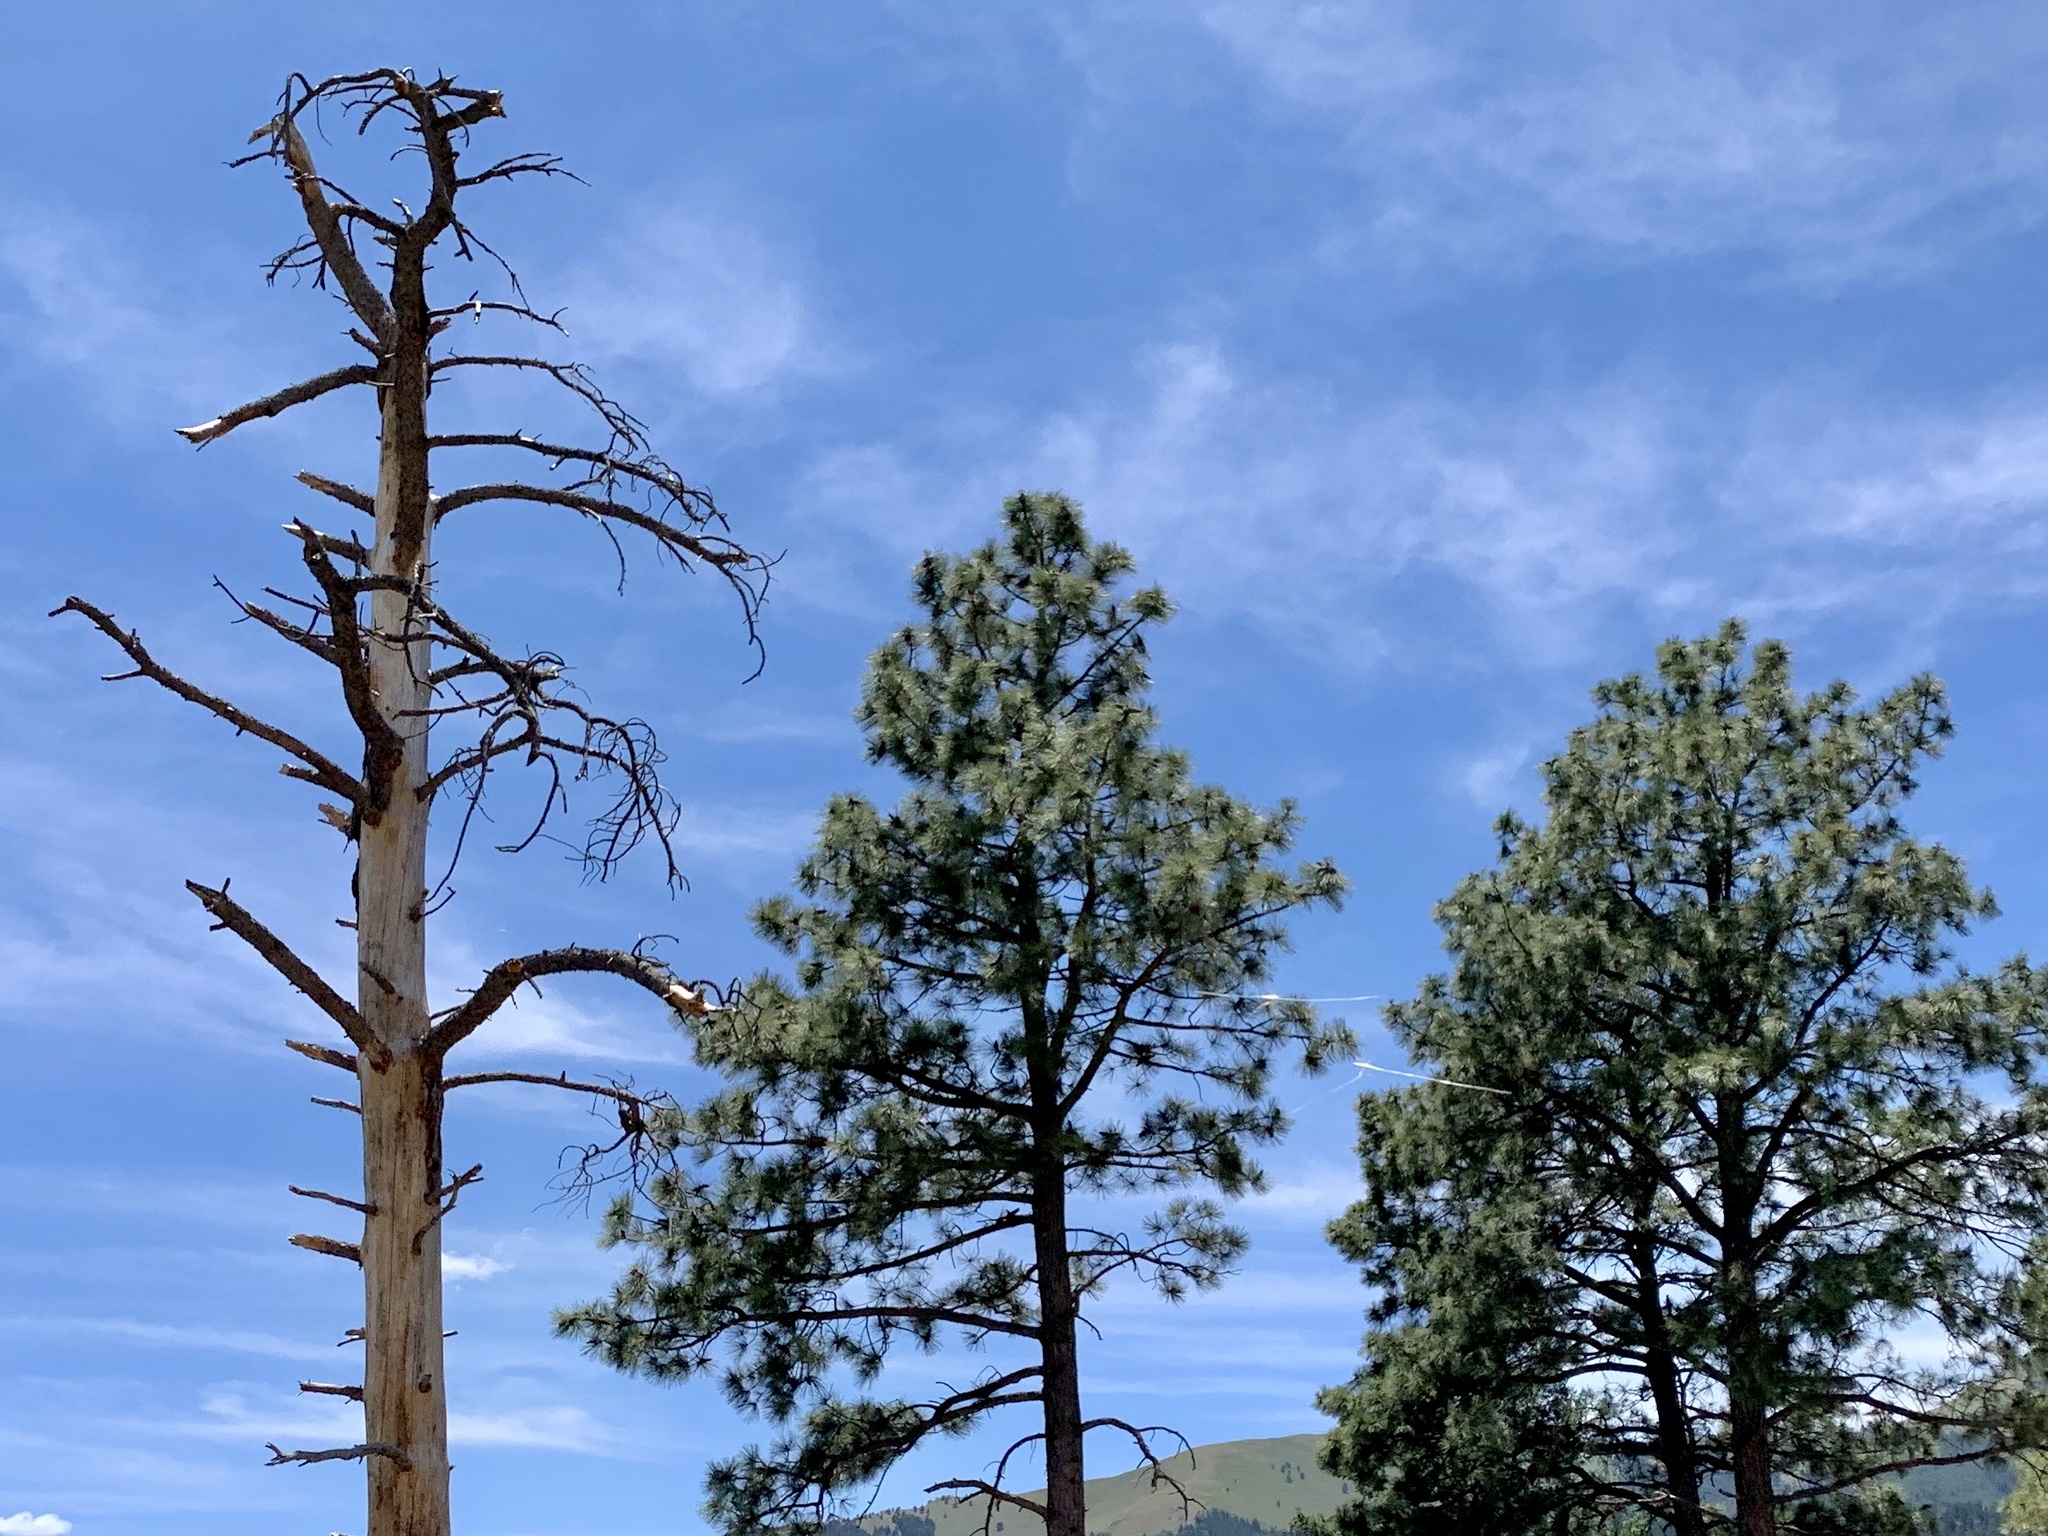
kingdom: Plantae
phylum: Tracheophyta
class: Pinopsida
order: Pinales
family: Pinaceae
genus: Pinus
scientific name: Pinus ponderosa
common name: Western yellow-pine
